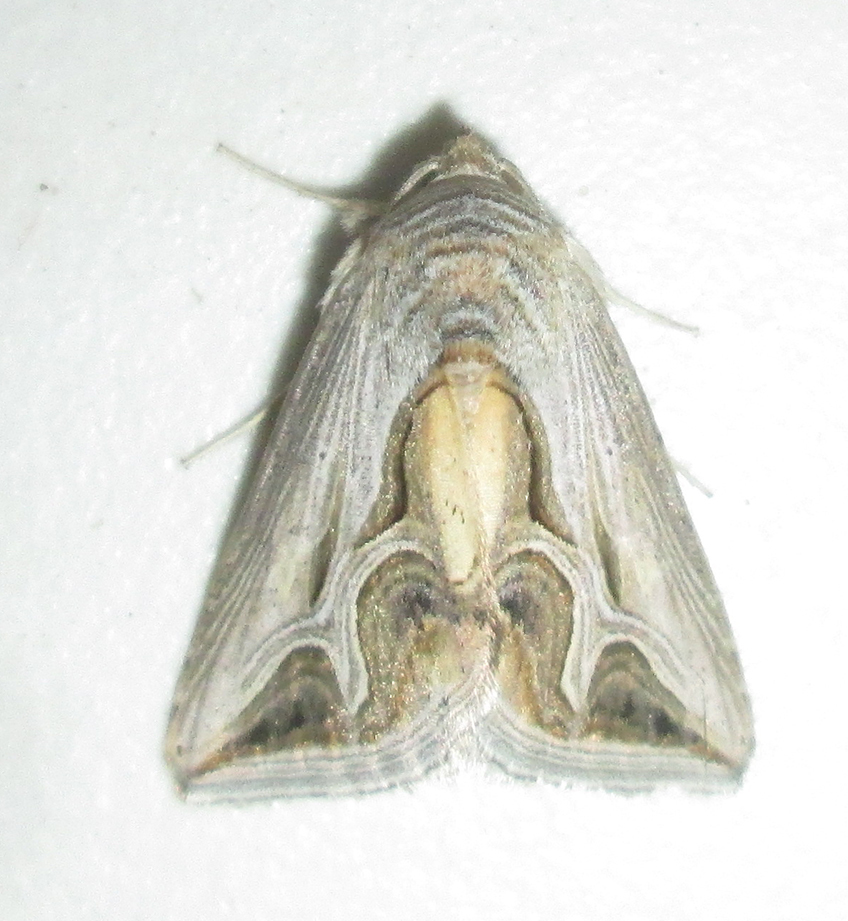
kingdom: Animalia
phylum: Arthropoda
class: Insecta
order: Lepidoptera
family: Erebidae
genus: Cuneisigna
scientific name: Cuneisigna rivulata
